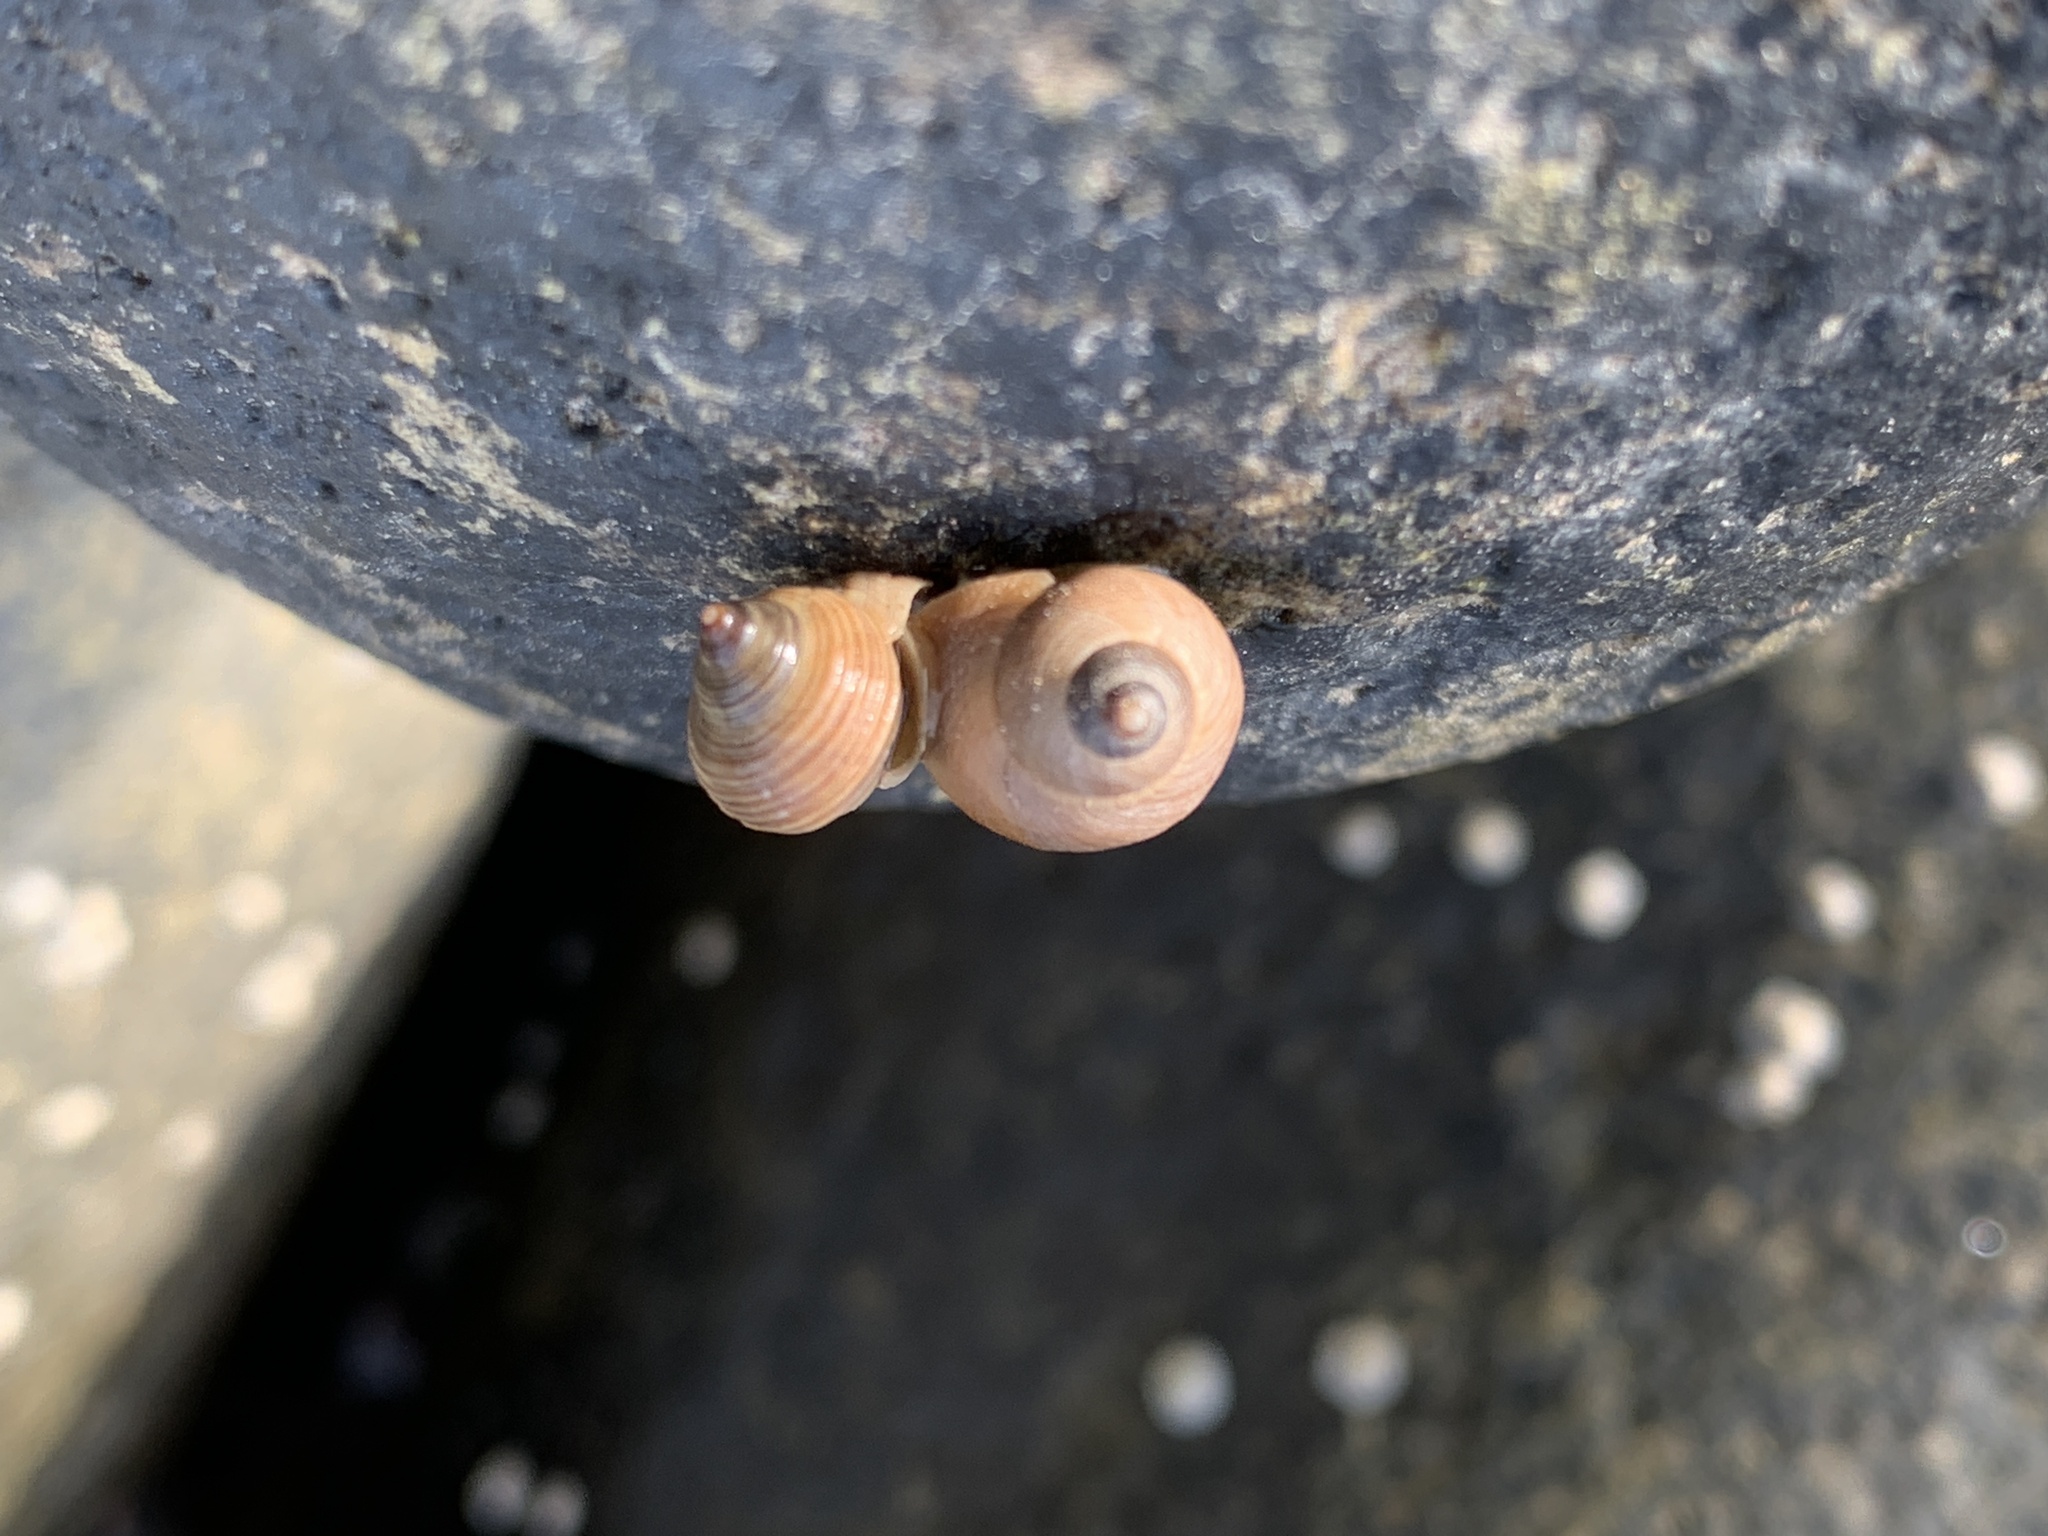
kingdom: Animalia
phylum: Mollusca
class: Gastropoda
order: Littorinimorpha
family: Littorinidae
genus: Littorina
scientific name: Littorina saxatilis
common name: Black-lined periwinkle
